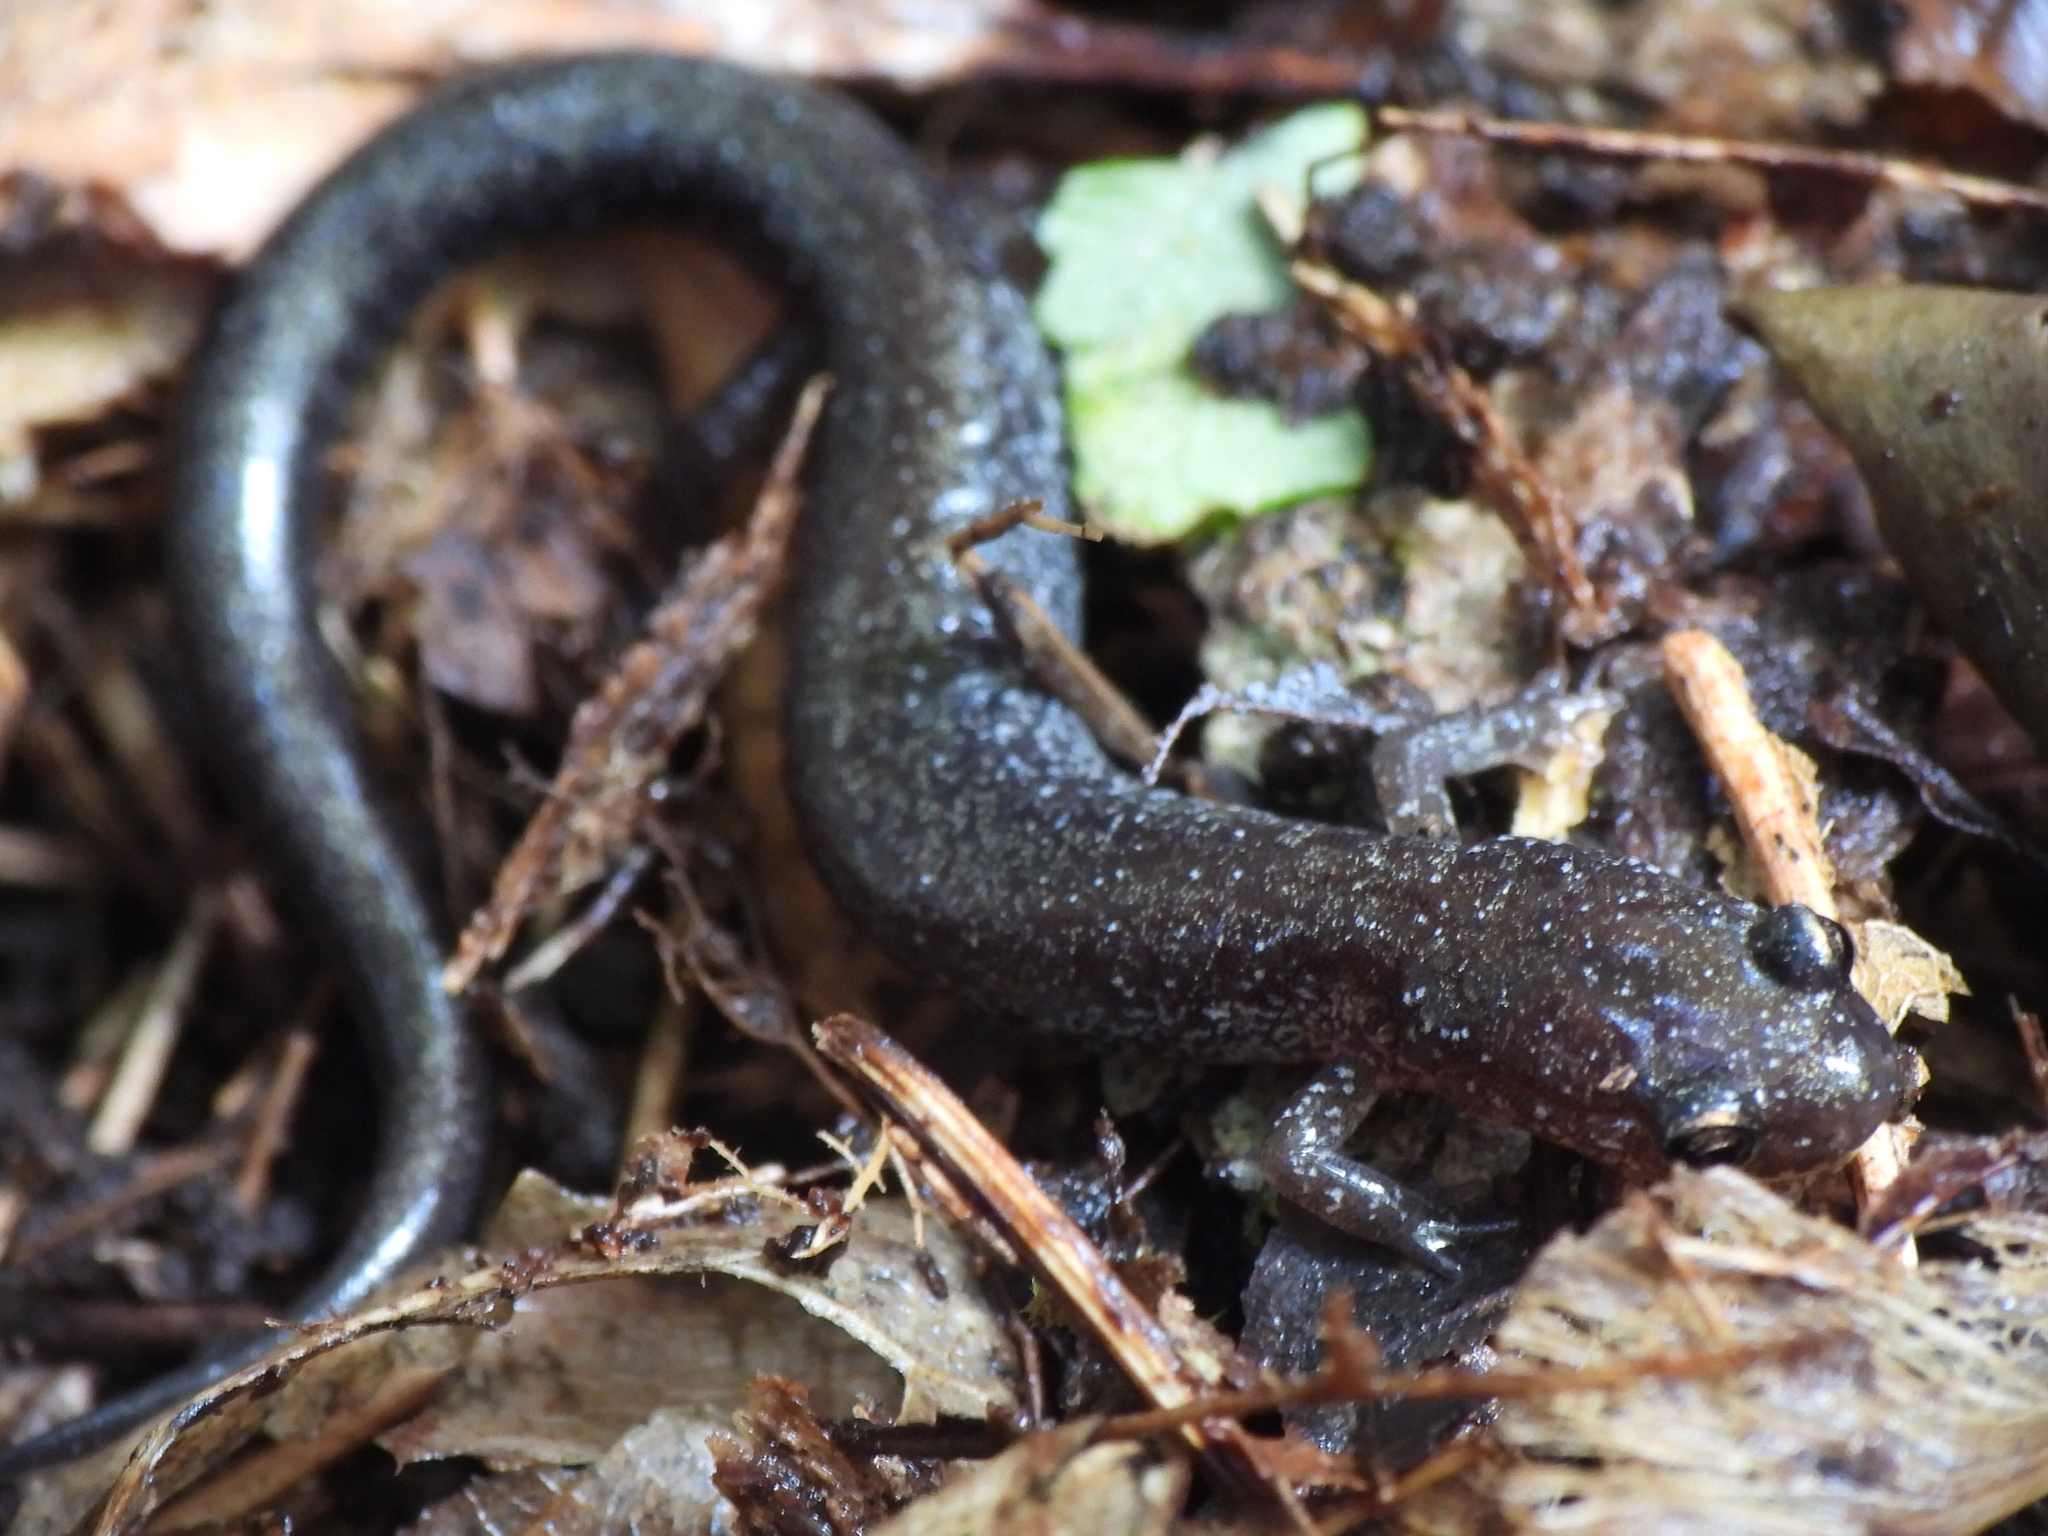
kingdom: Animalia
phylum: Chordata
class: Amphibia
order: Caudata
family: Plethodontidae
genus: Plethodon
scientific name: Plethodon cinereus
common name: Redback salamander
